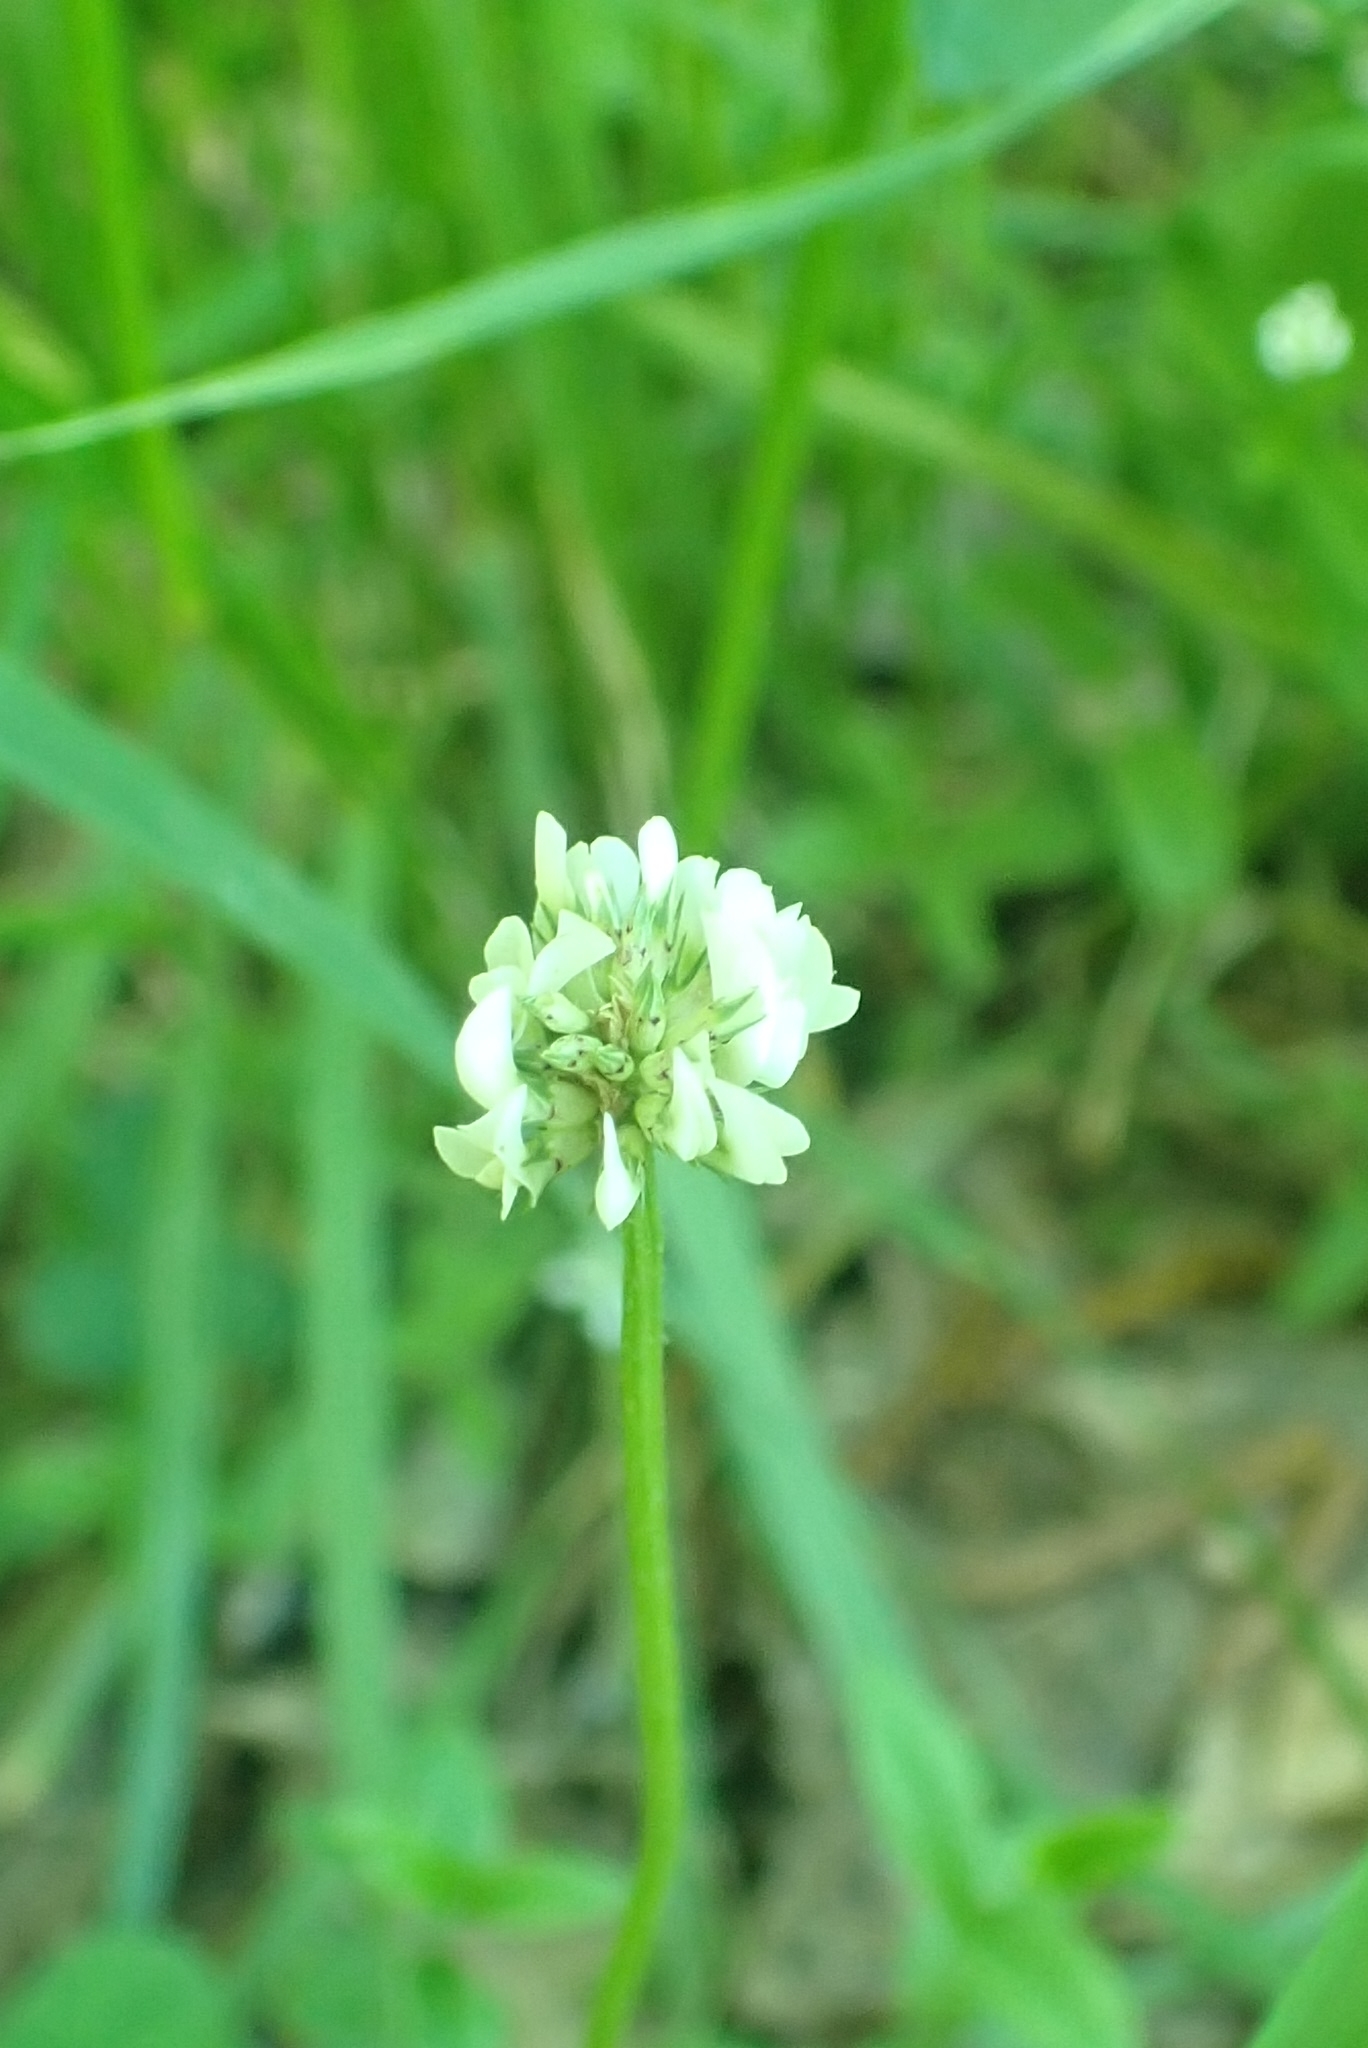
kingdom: Plantae
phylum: Tracheophyta
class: Magnoliopsida
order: Fabales
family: Fabaceae
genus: Trifolium
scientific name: Trifolium repens
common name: White clover
